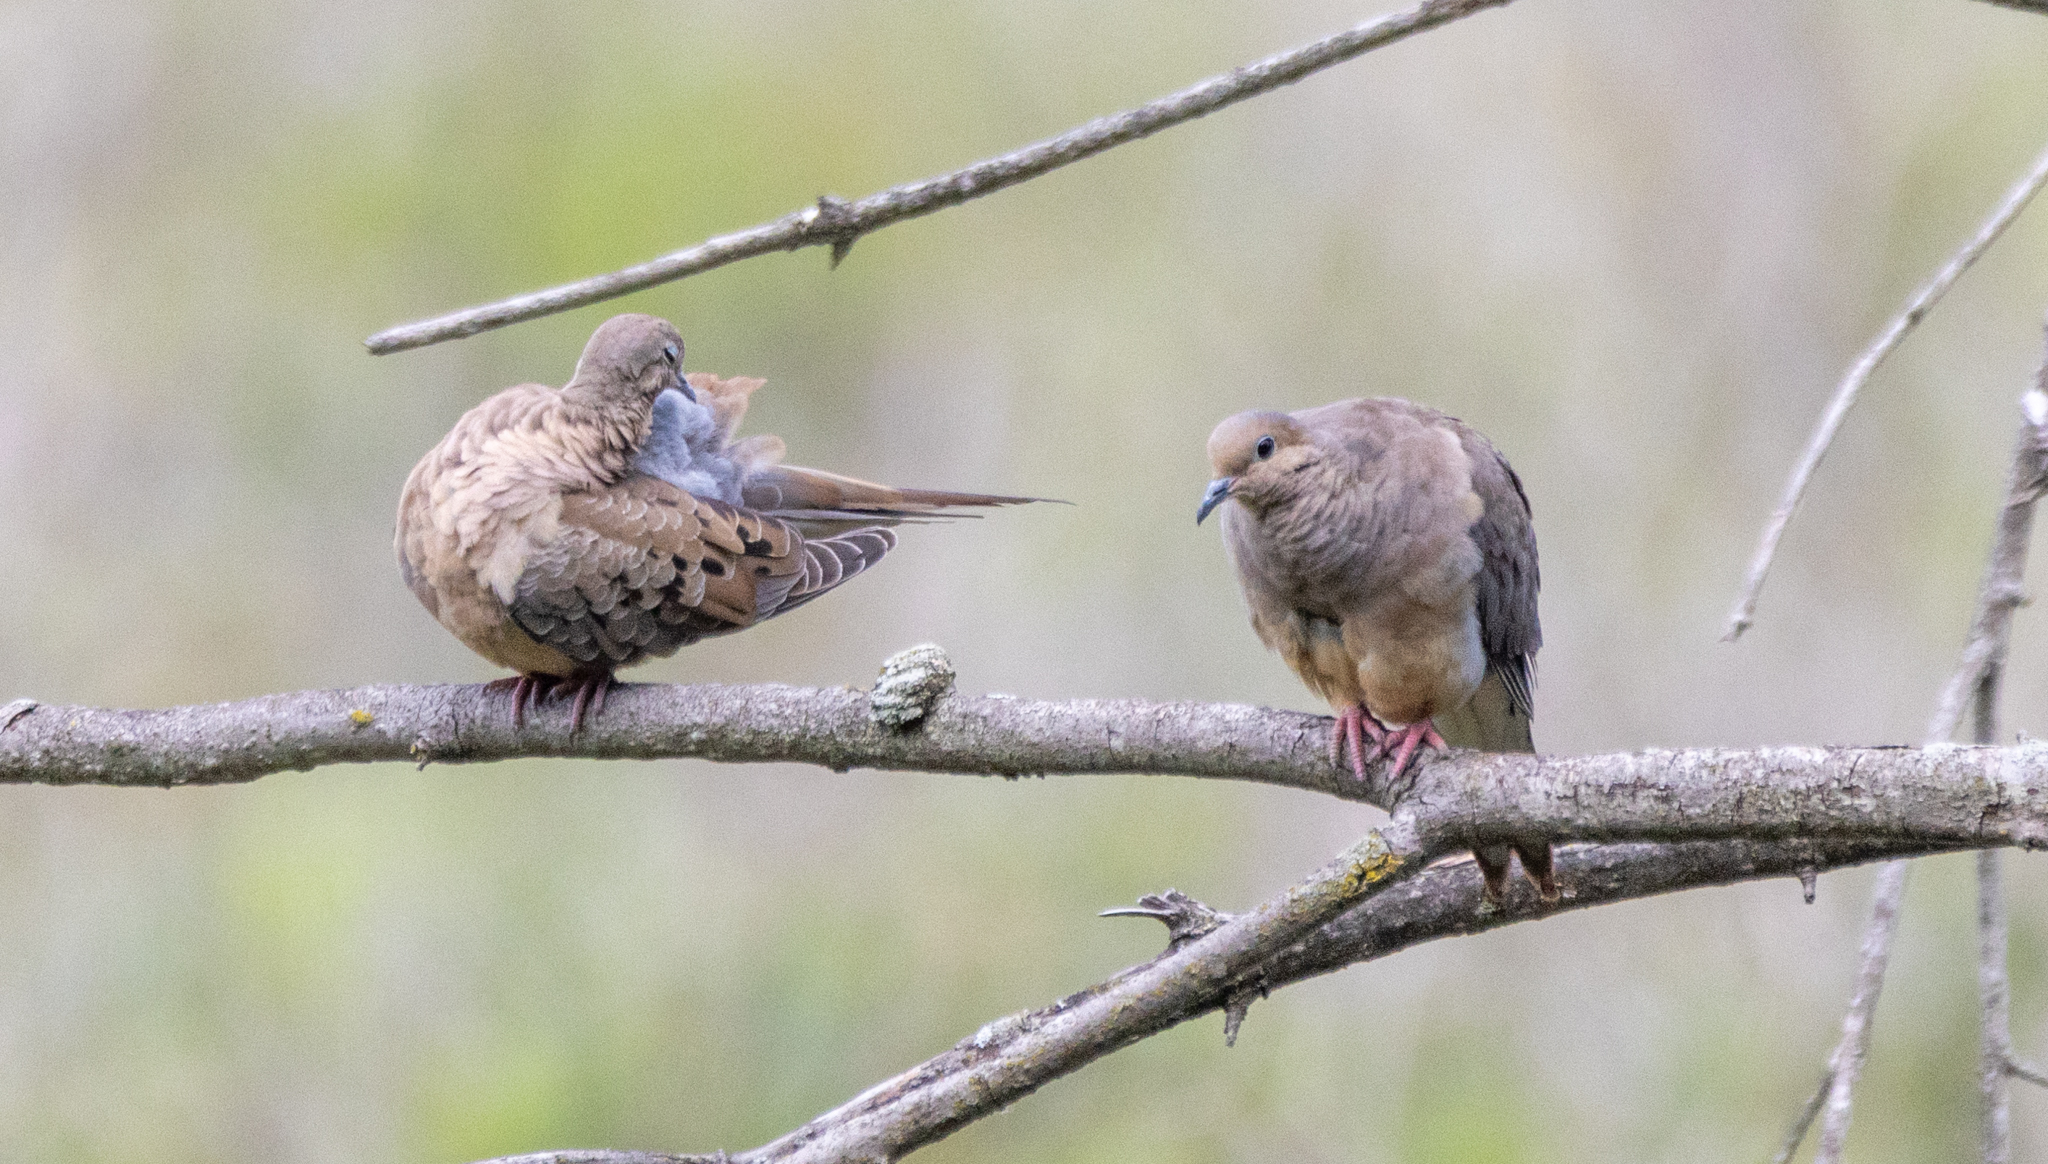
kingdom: Animalia
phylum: Chordata
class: Aves
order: Columbiformes
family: Columbidae
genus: Zenaida
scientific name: Zenaida macroura
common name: Mourning dove
